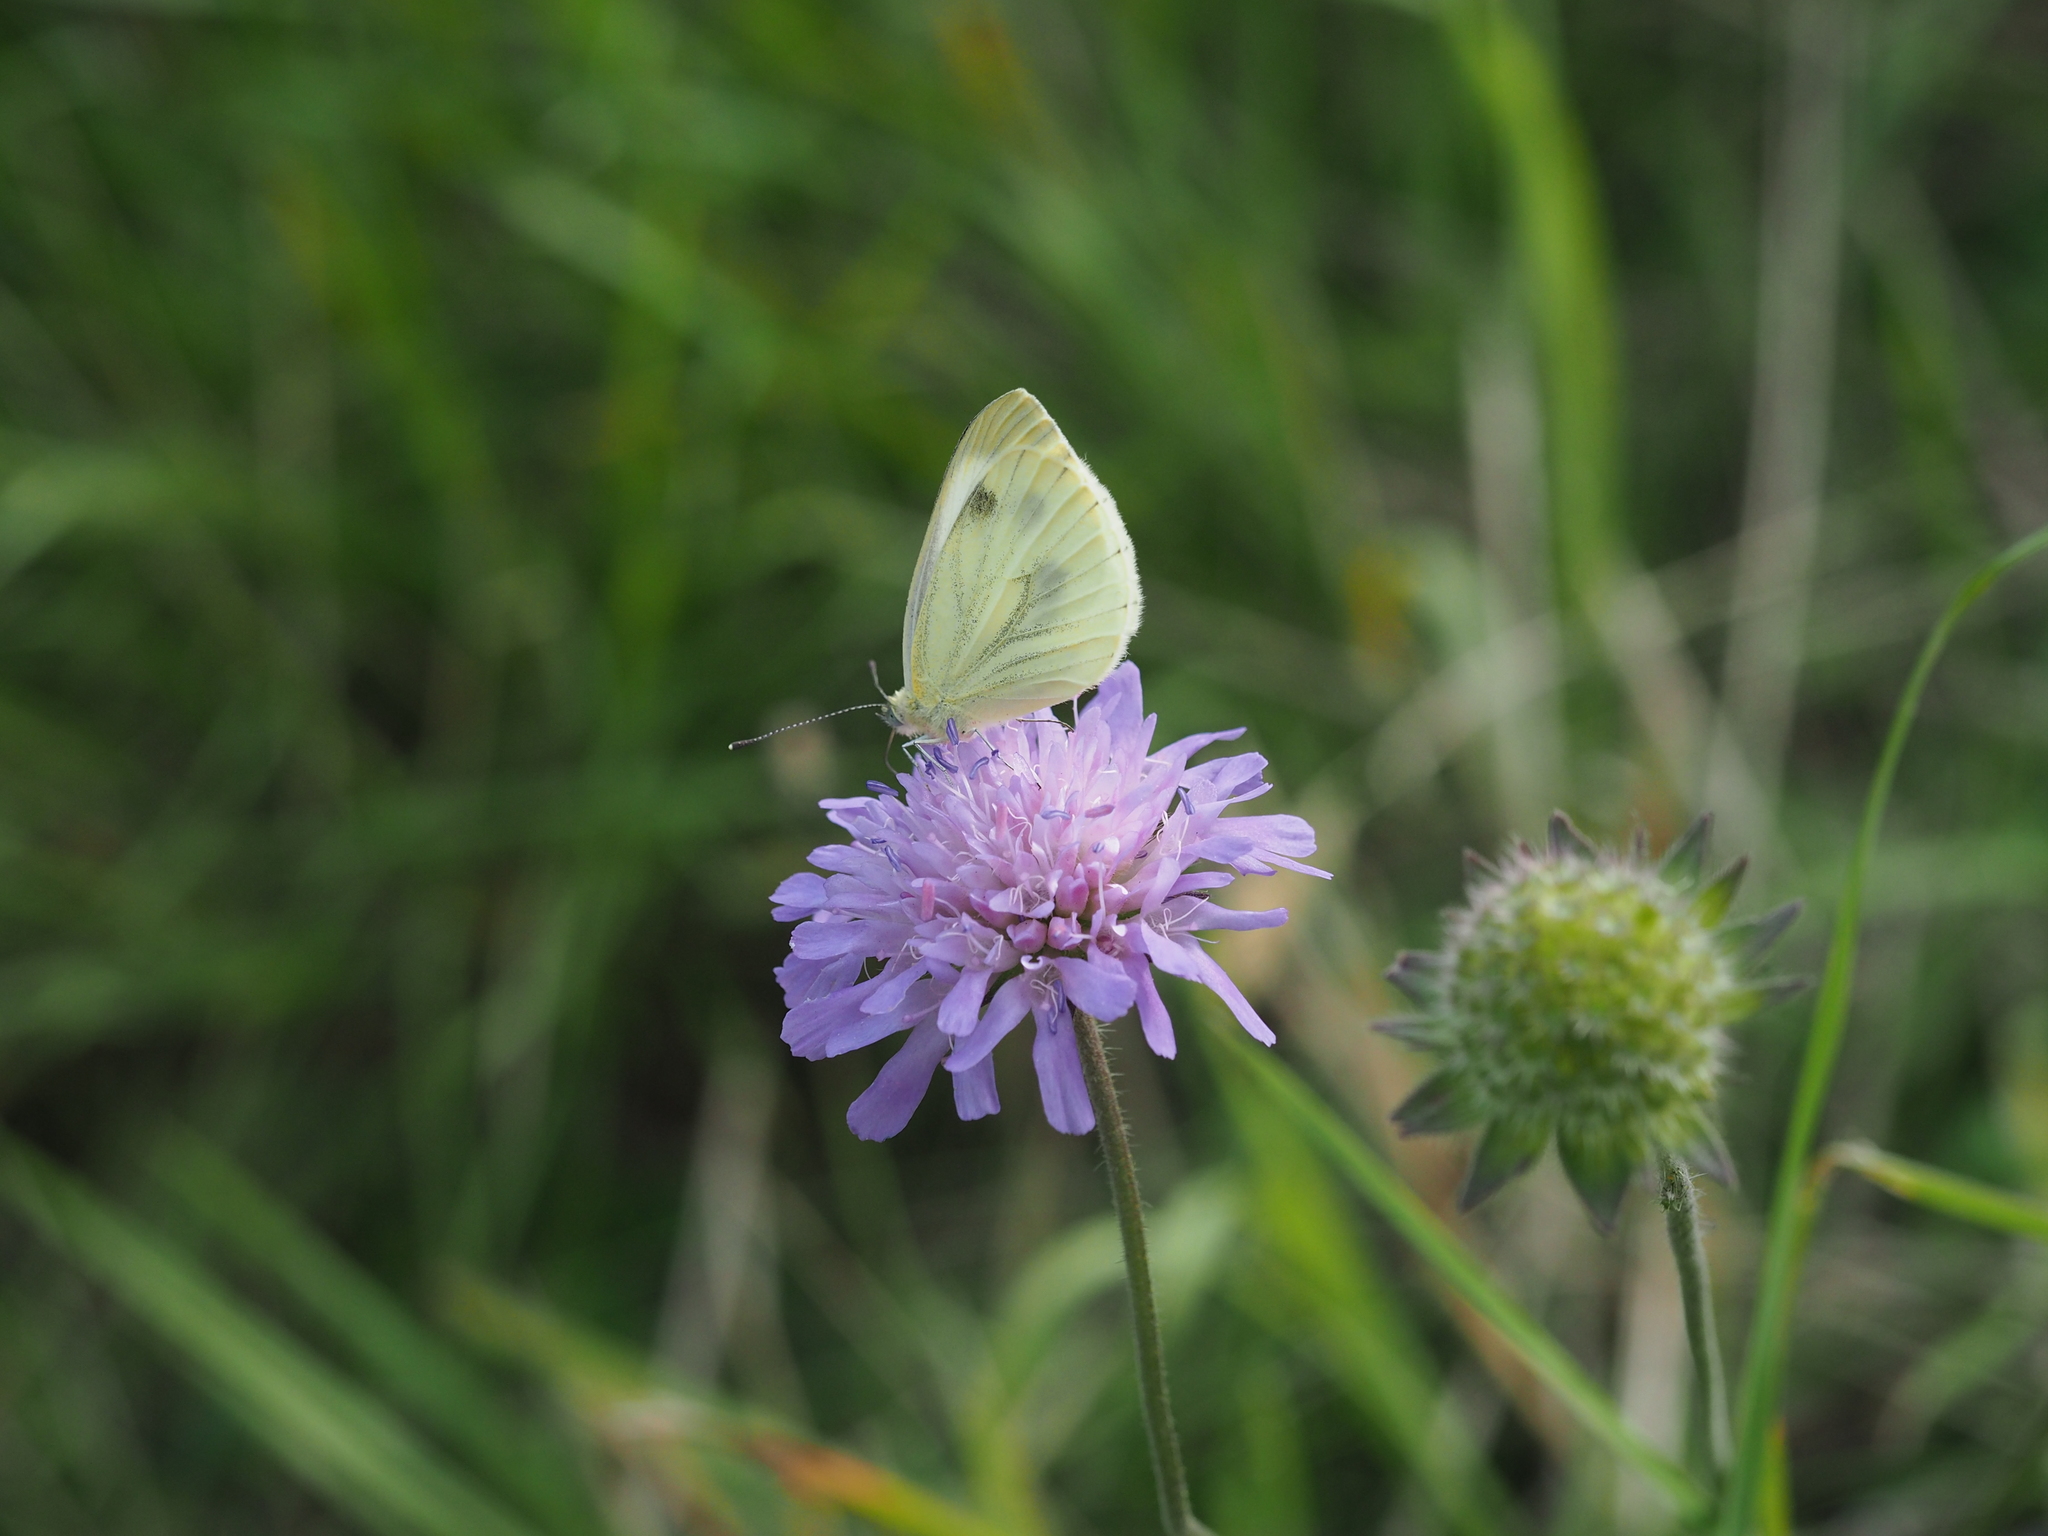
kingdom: Animalia
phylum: Arthropoda
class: Insecta
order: Lepidoptera
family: Pieridae
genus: Pieris
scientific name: Pieris napi
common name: Green-veined white
